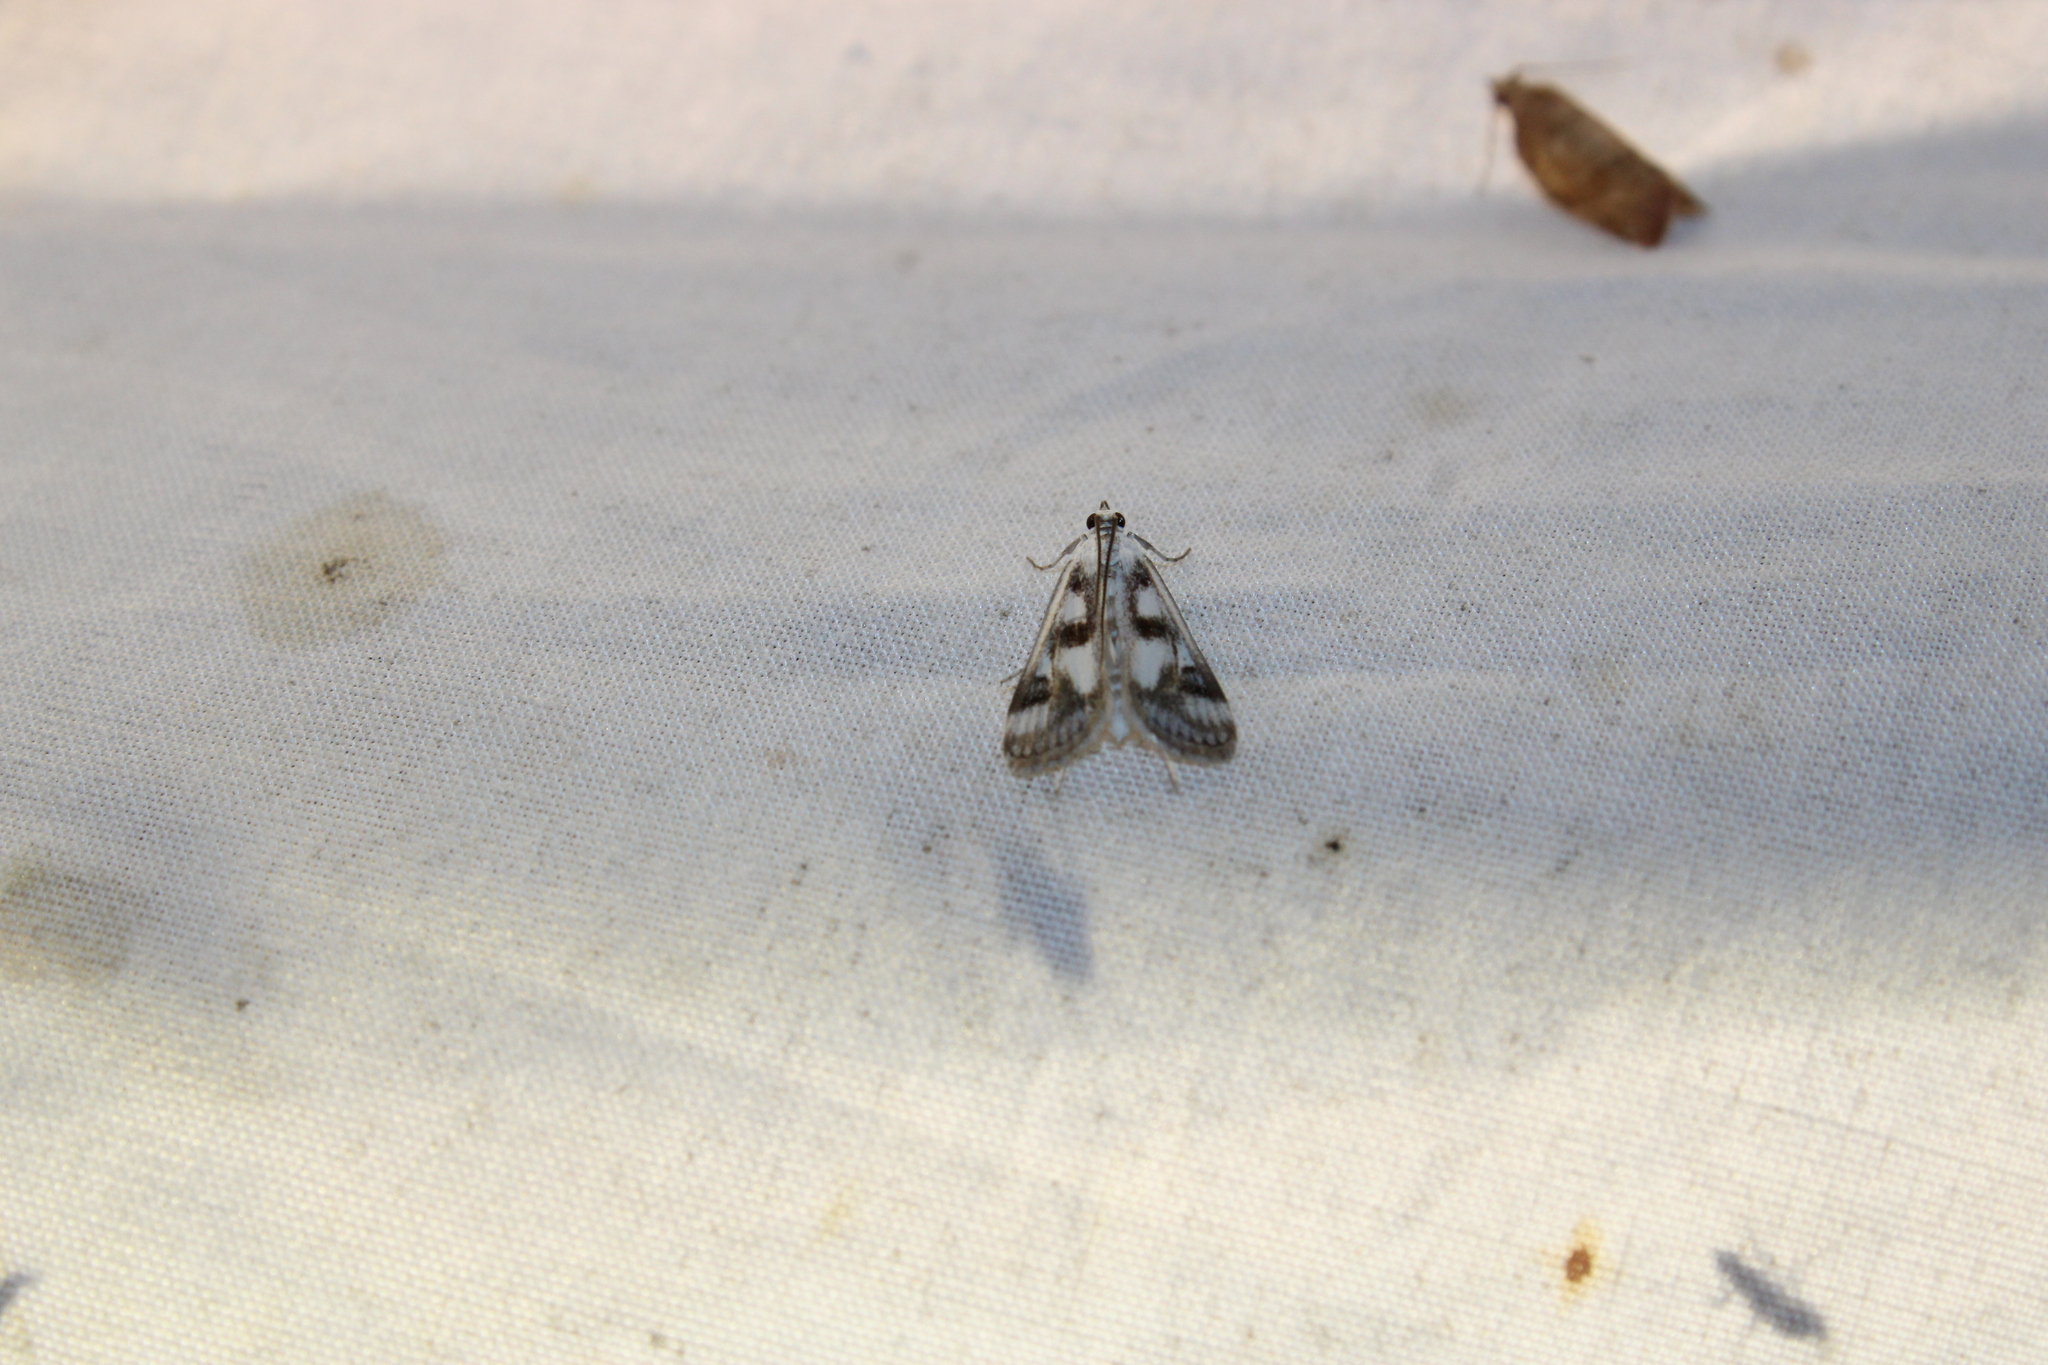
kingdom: Animalia
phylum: Arthropoda
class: Insecta
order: Lepidoptera
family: Crambidae
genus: Parapoynx
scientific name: Parapoynx maculalis
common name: Polymorphic pondweed moth
